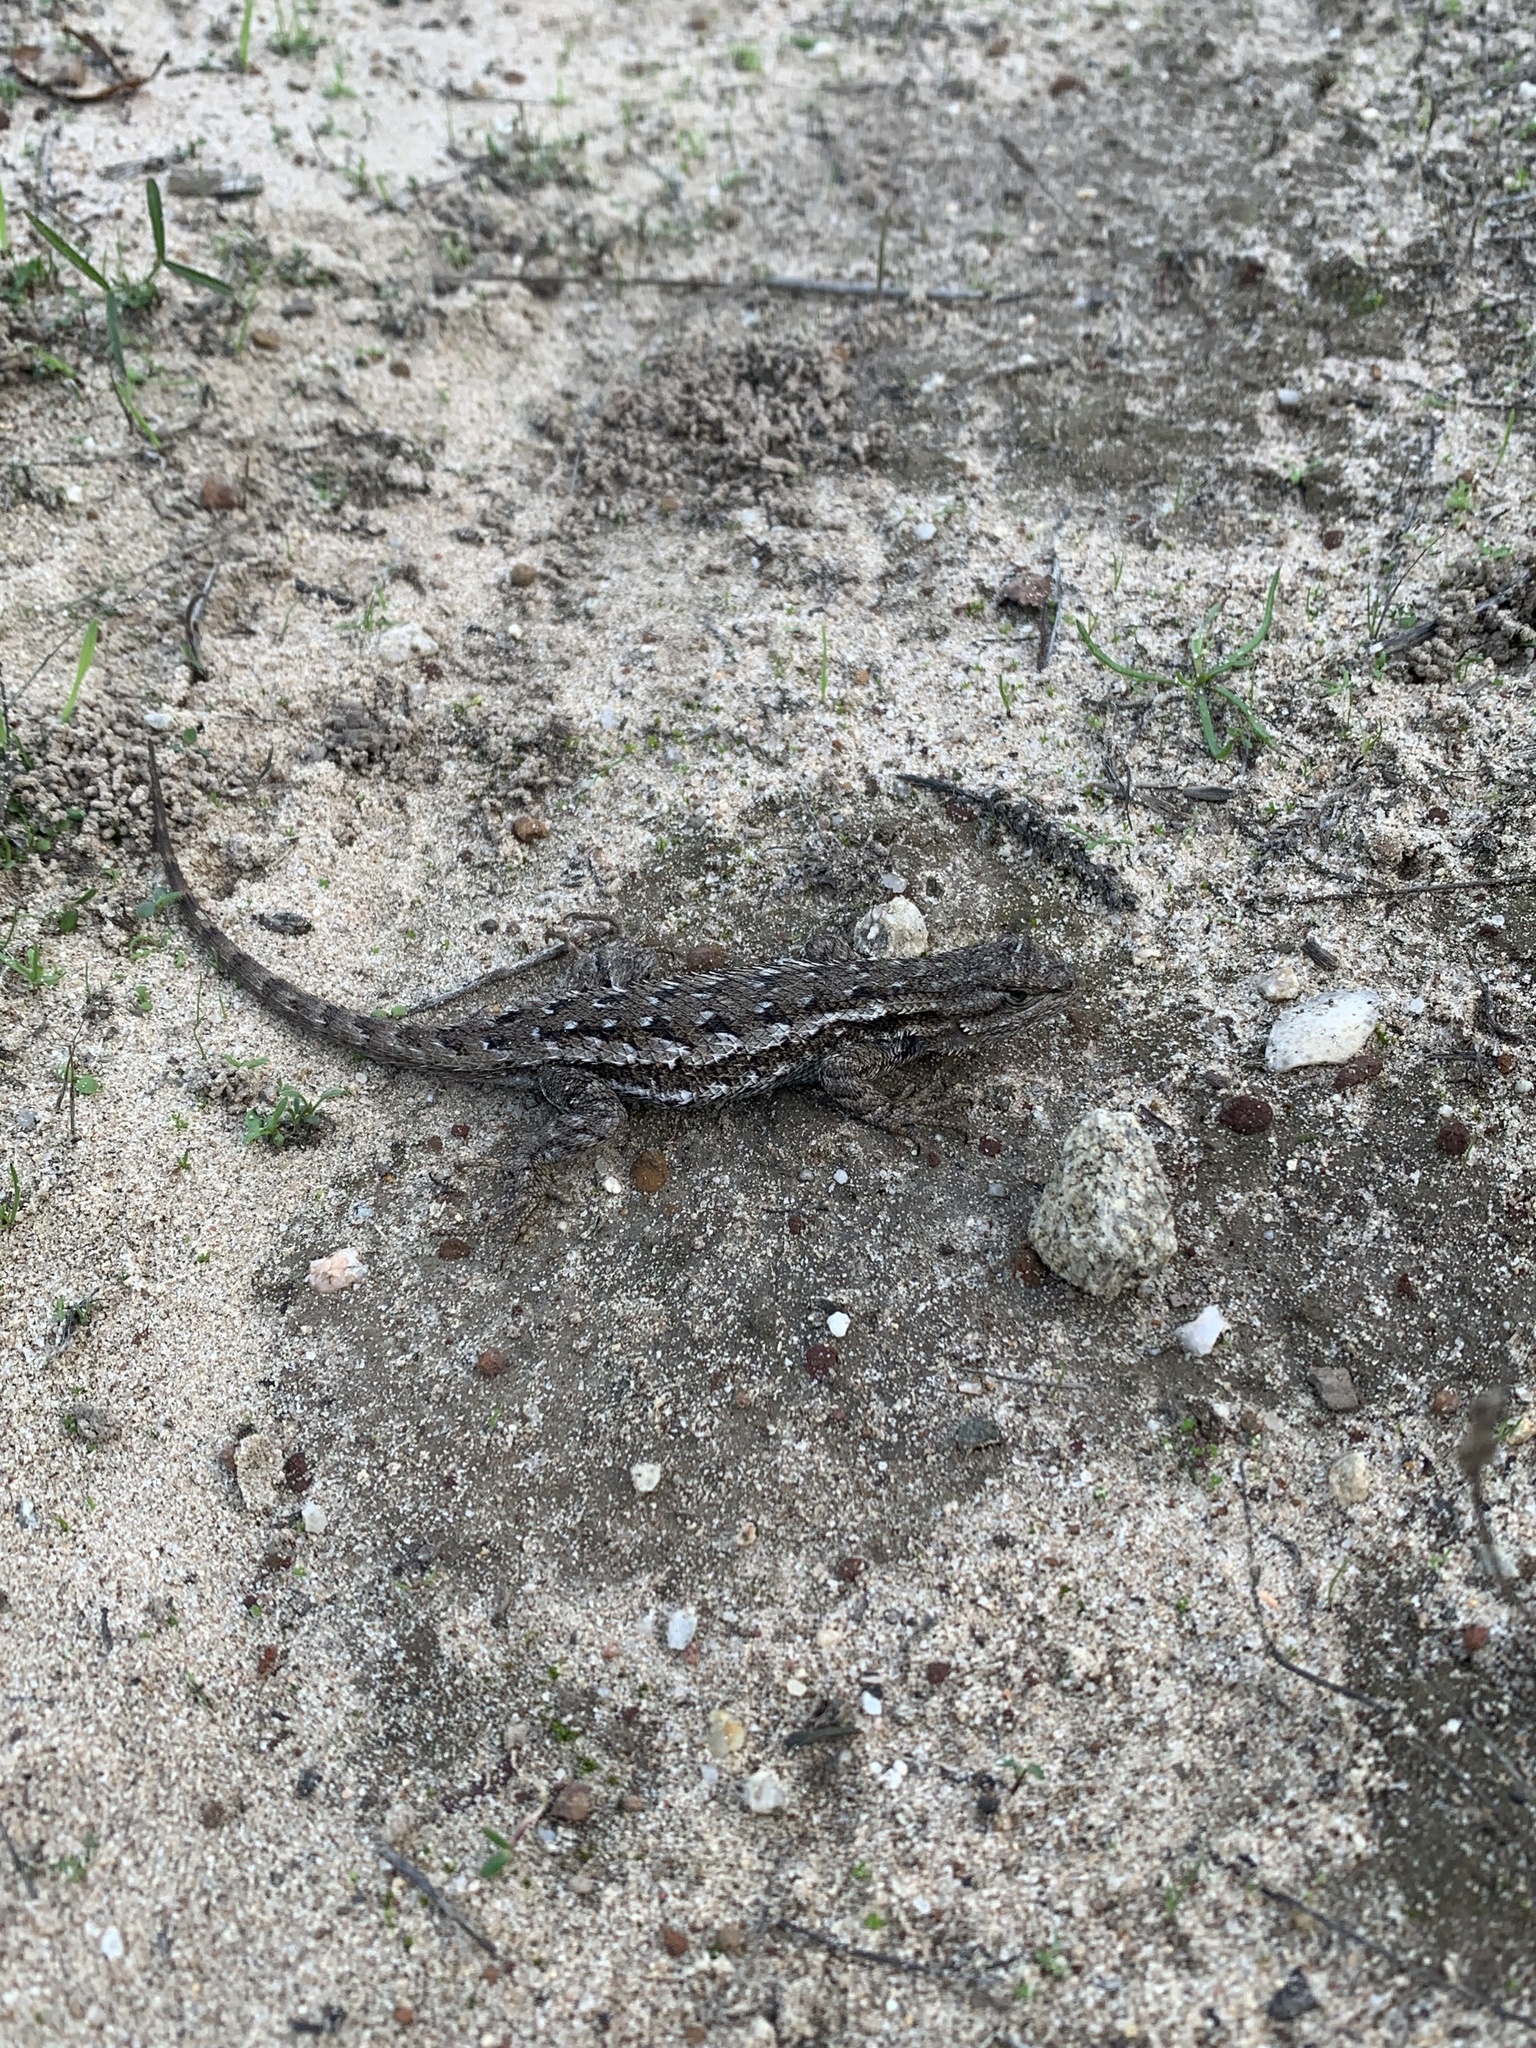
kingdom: Animalia
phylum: Chordata
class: Squamata
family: Phrynosomatidae
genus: Sceloporus
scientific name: Sceloporus occidentalis
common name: Western fence lizard
